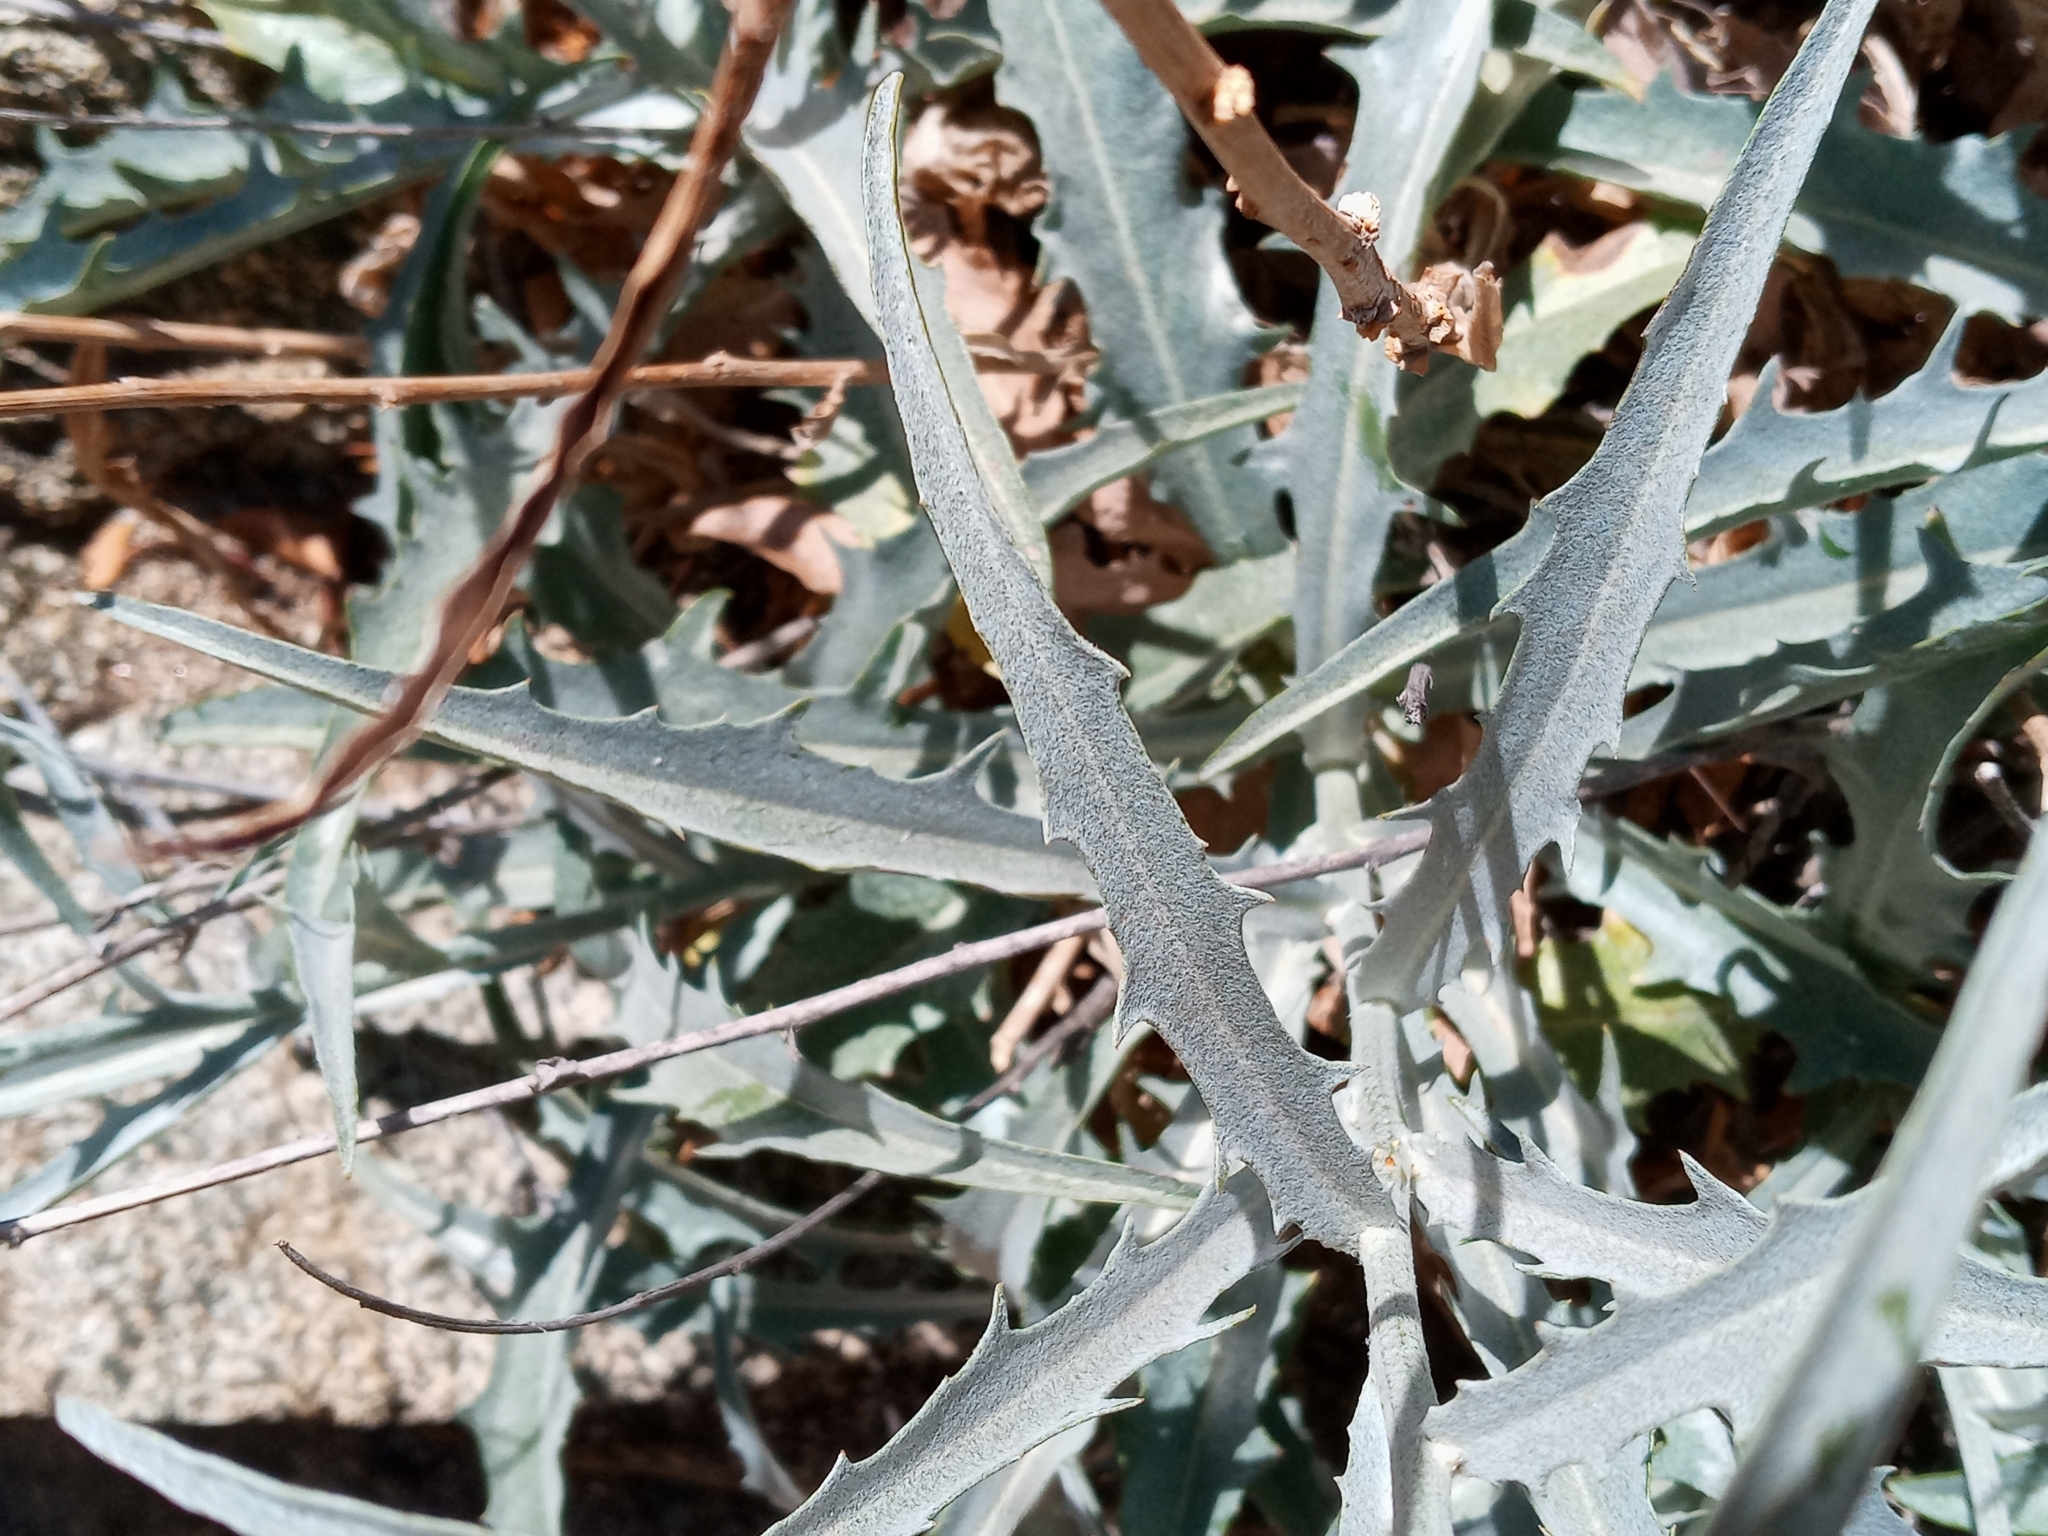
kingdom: Plantae
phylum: Tracheophyta
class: Magnoliopsida
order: Asterales
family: Asteraceae
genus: Stephanomeria
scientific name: Stephanomeria cichoriacea
